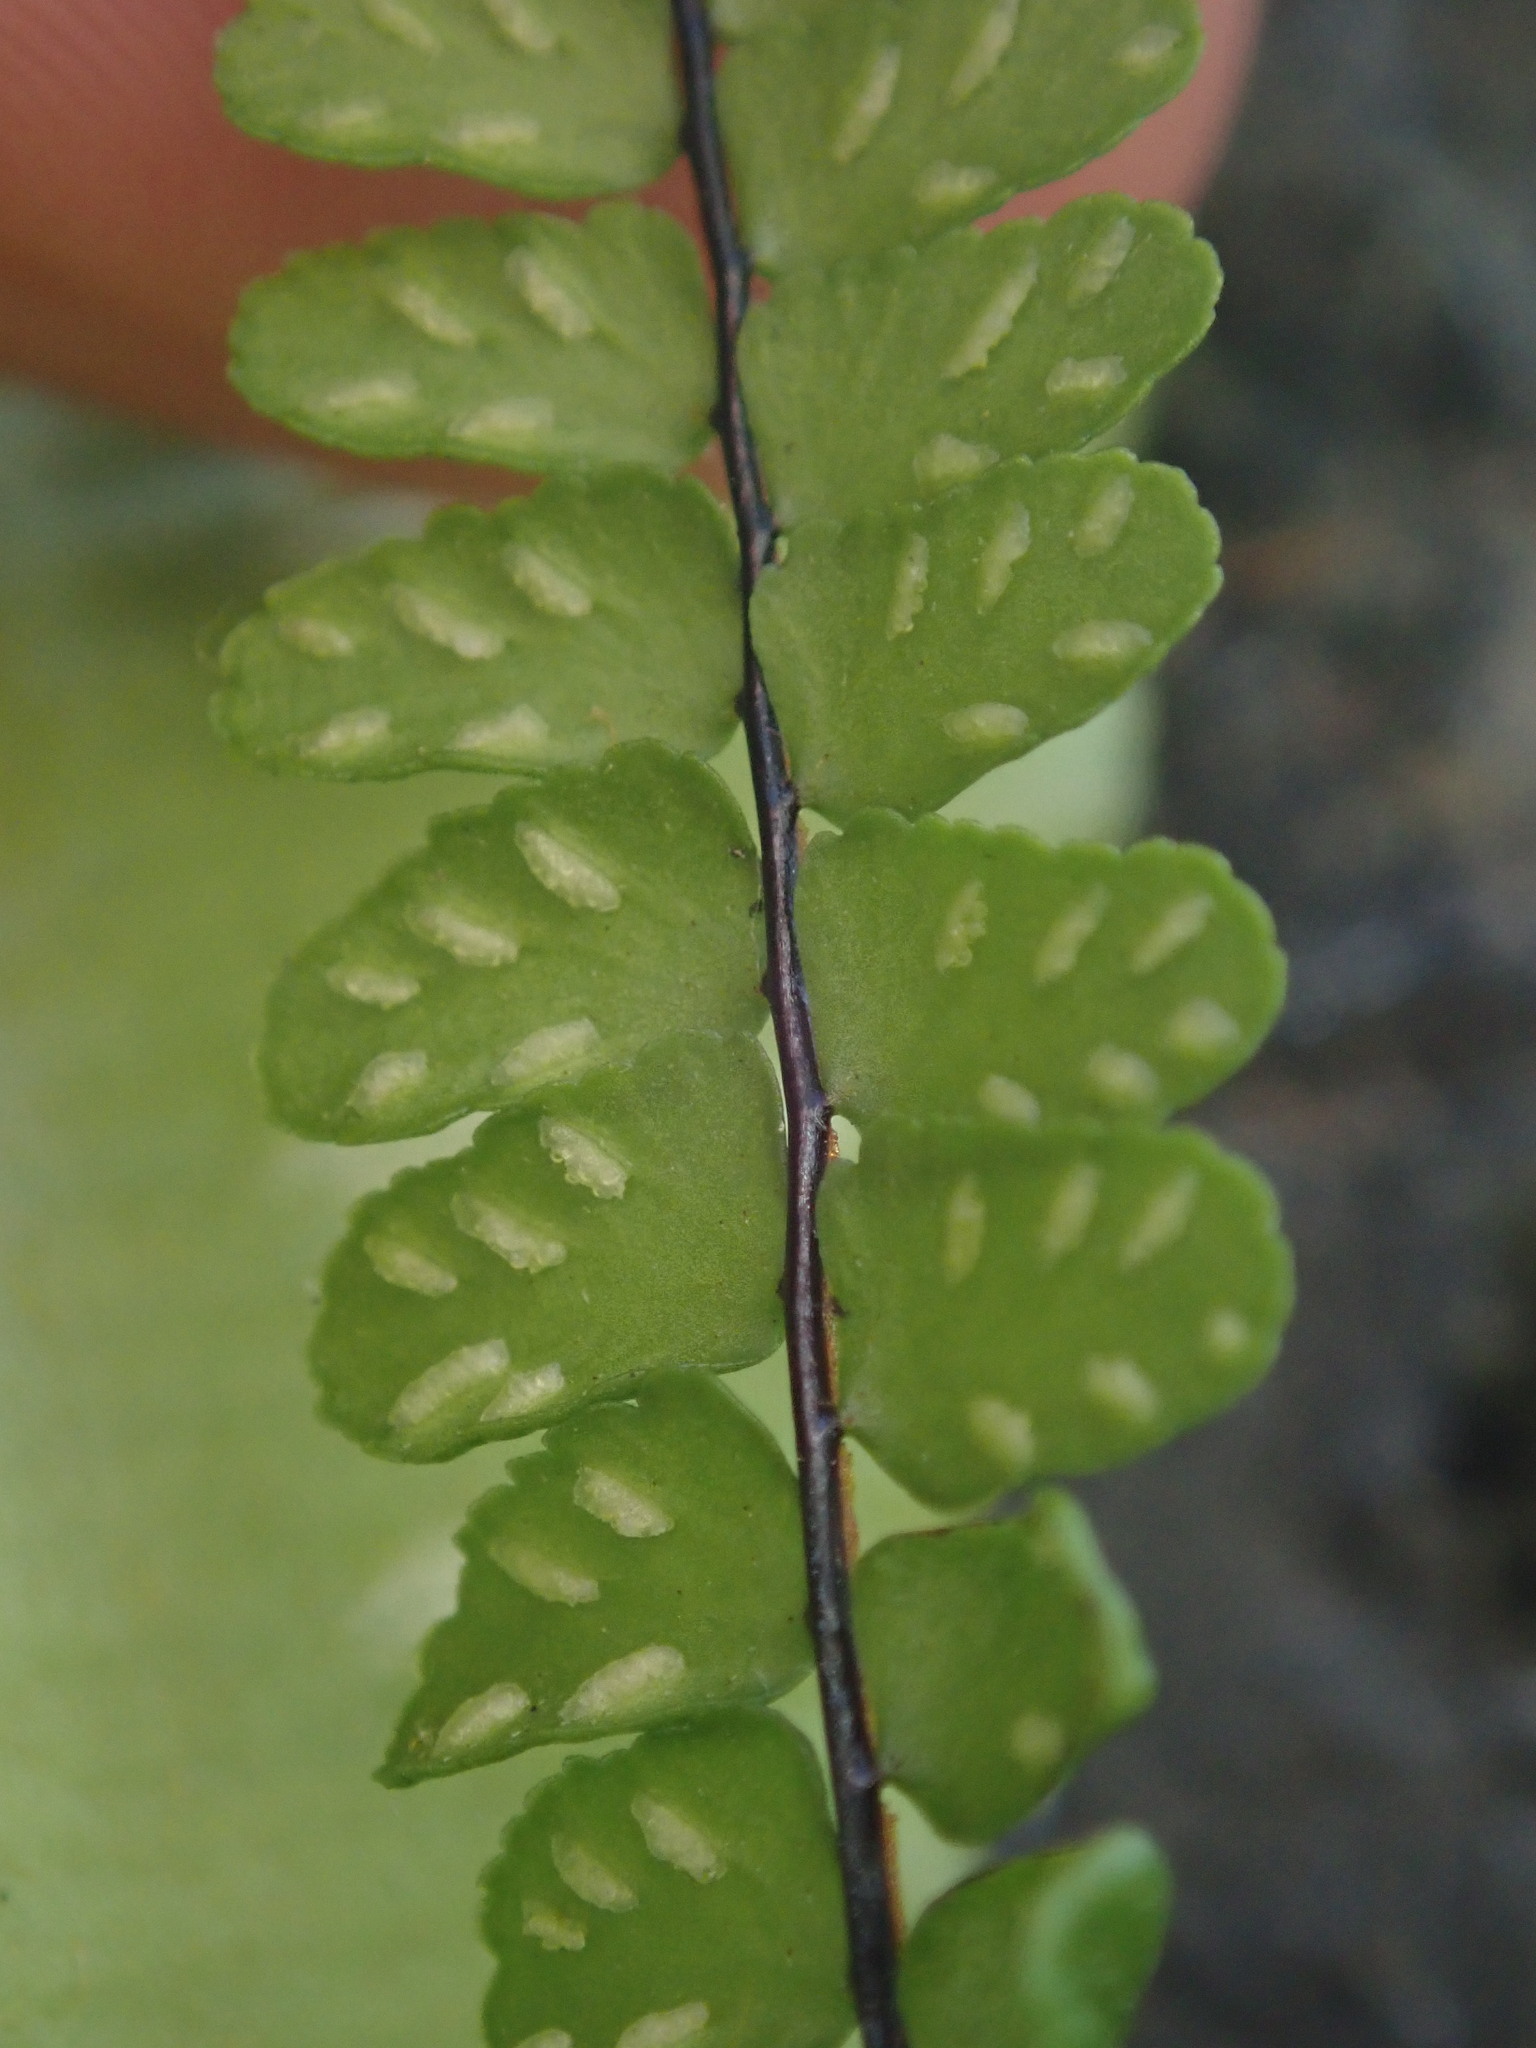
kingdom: Plantae
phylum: Tracheophyta
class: Polypodiopsida
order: Polypodiales
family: Aspleniaceae
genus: Asplenium
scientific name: Asplenium trichomanes
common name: Maidenhair spleenwort
